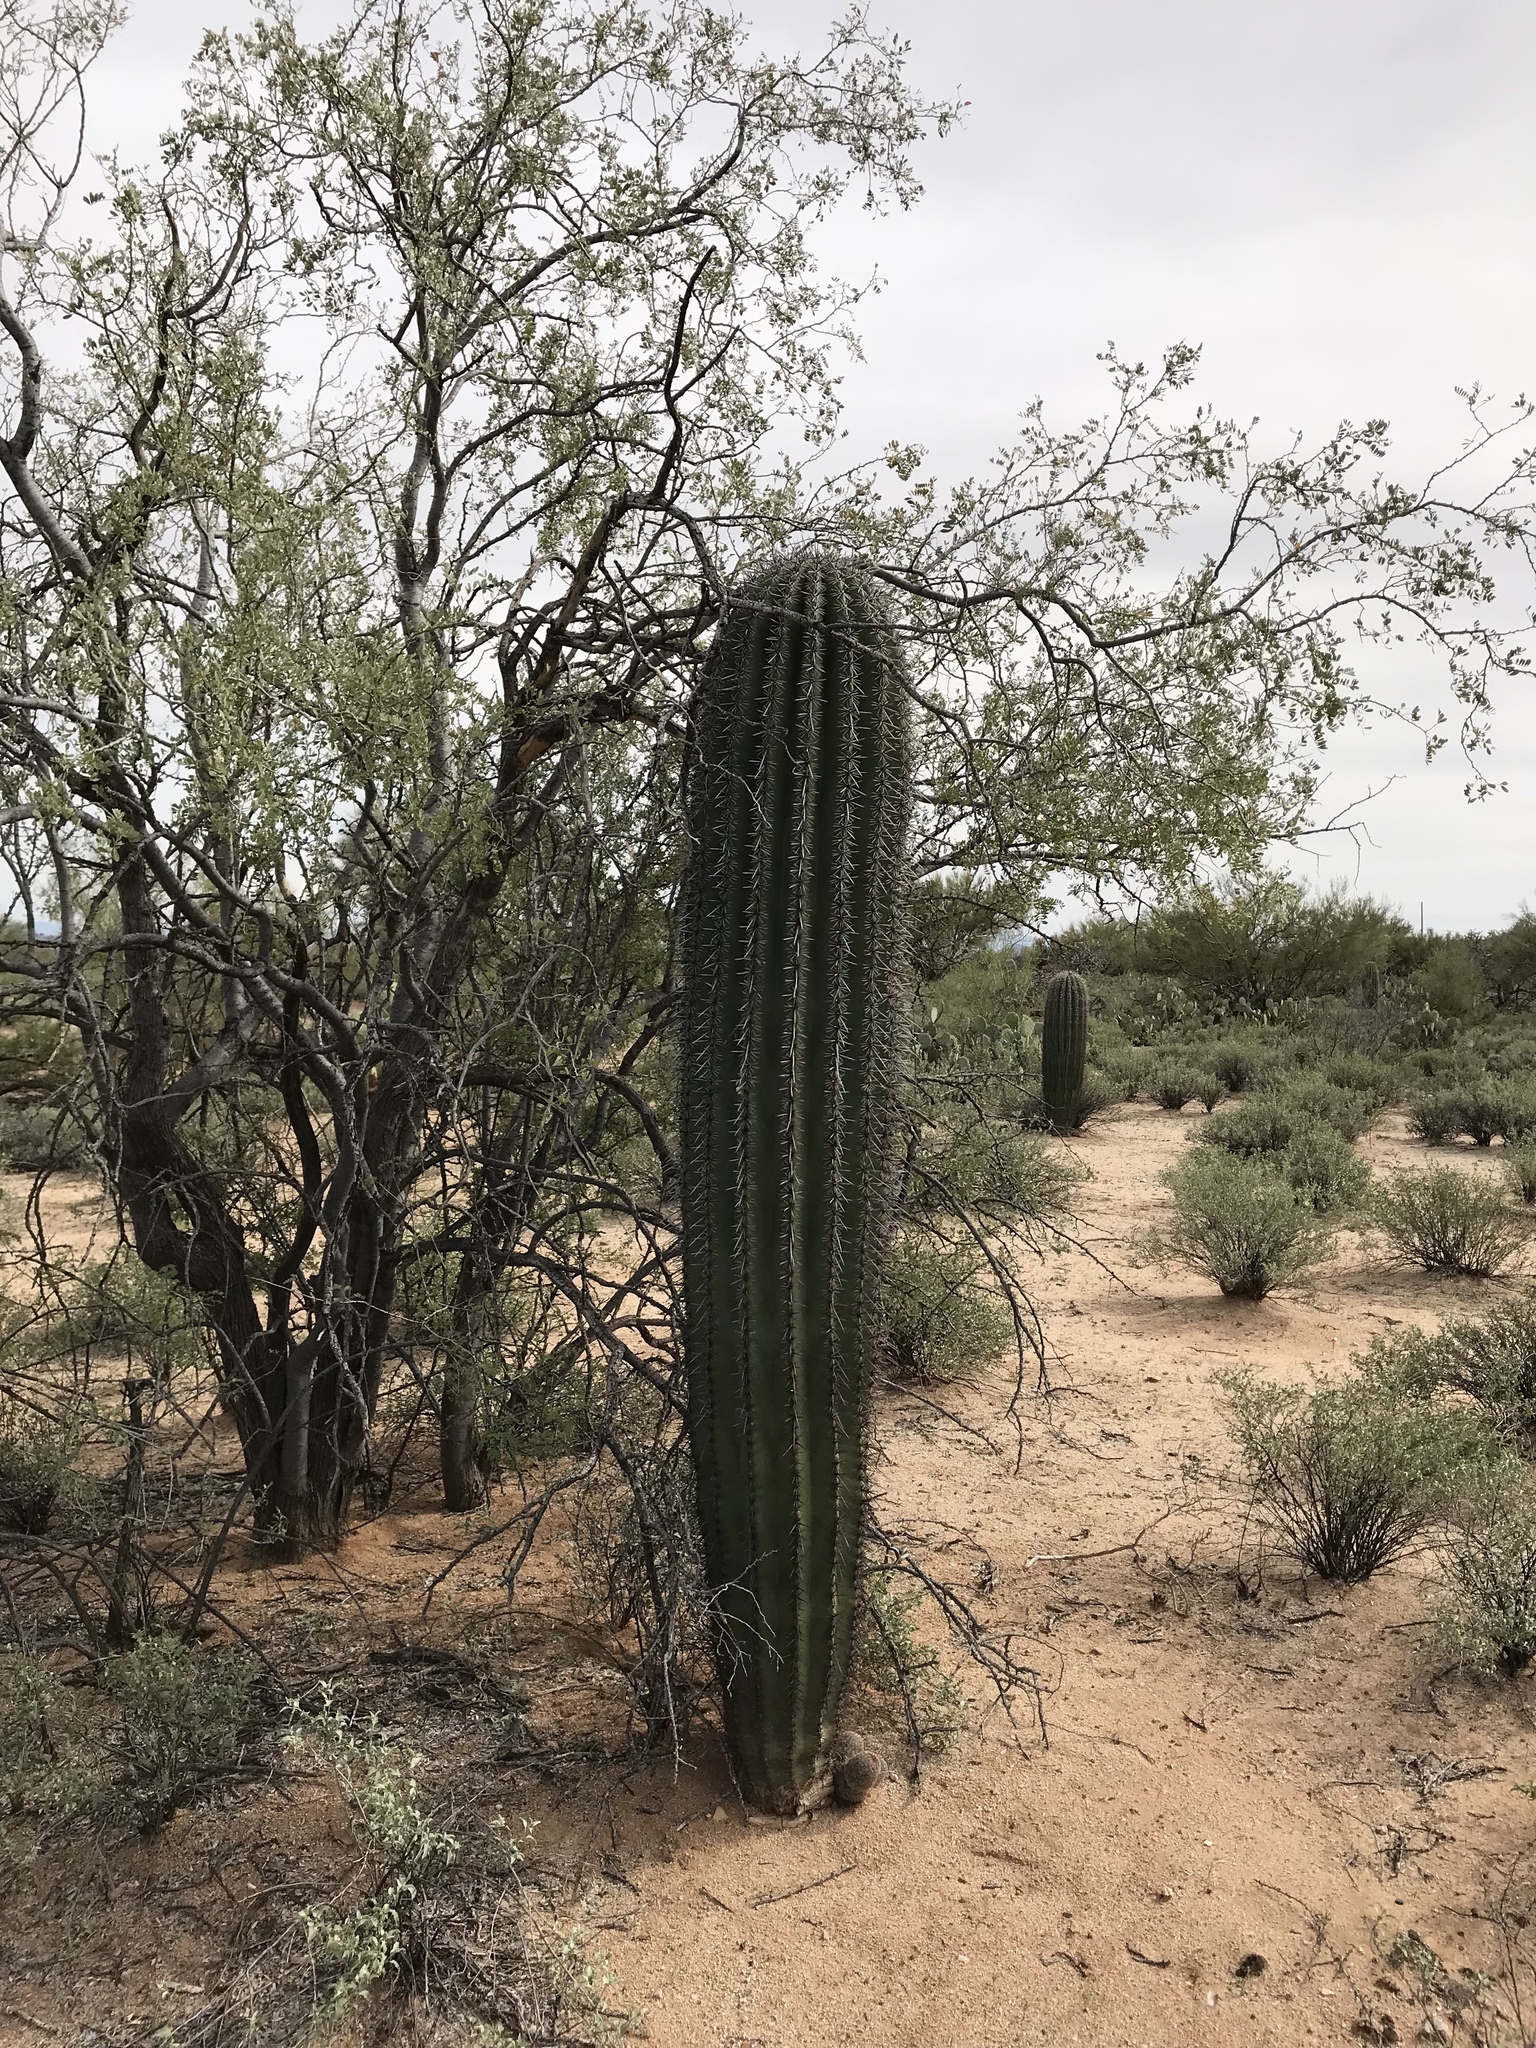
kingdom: Plantae
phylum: Tracheophyta
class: Magnoliopsida
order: Caryophyllales
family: Cactaceae
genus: Carnegiea
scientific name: Carnegiea gigantea
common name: Saguaro
